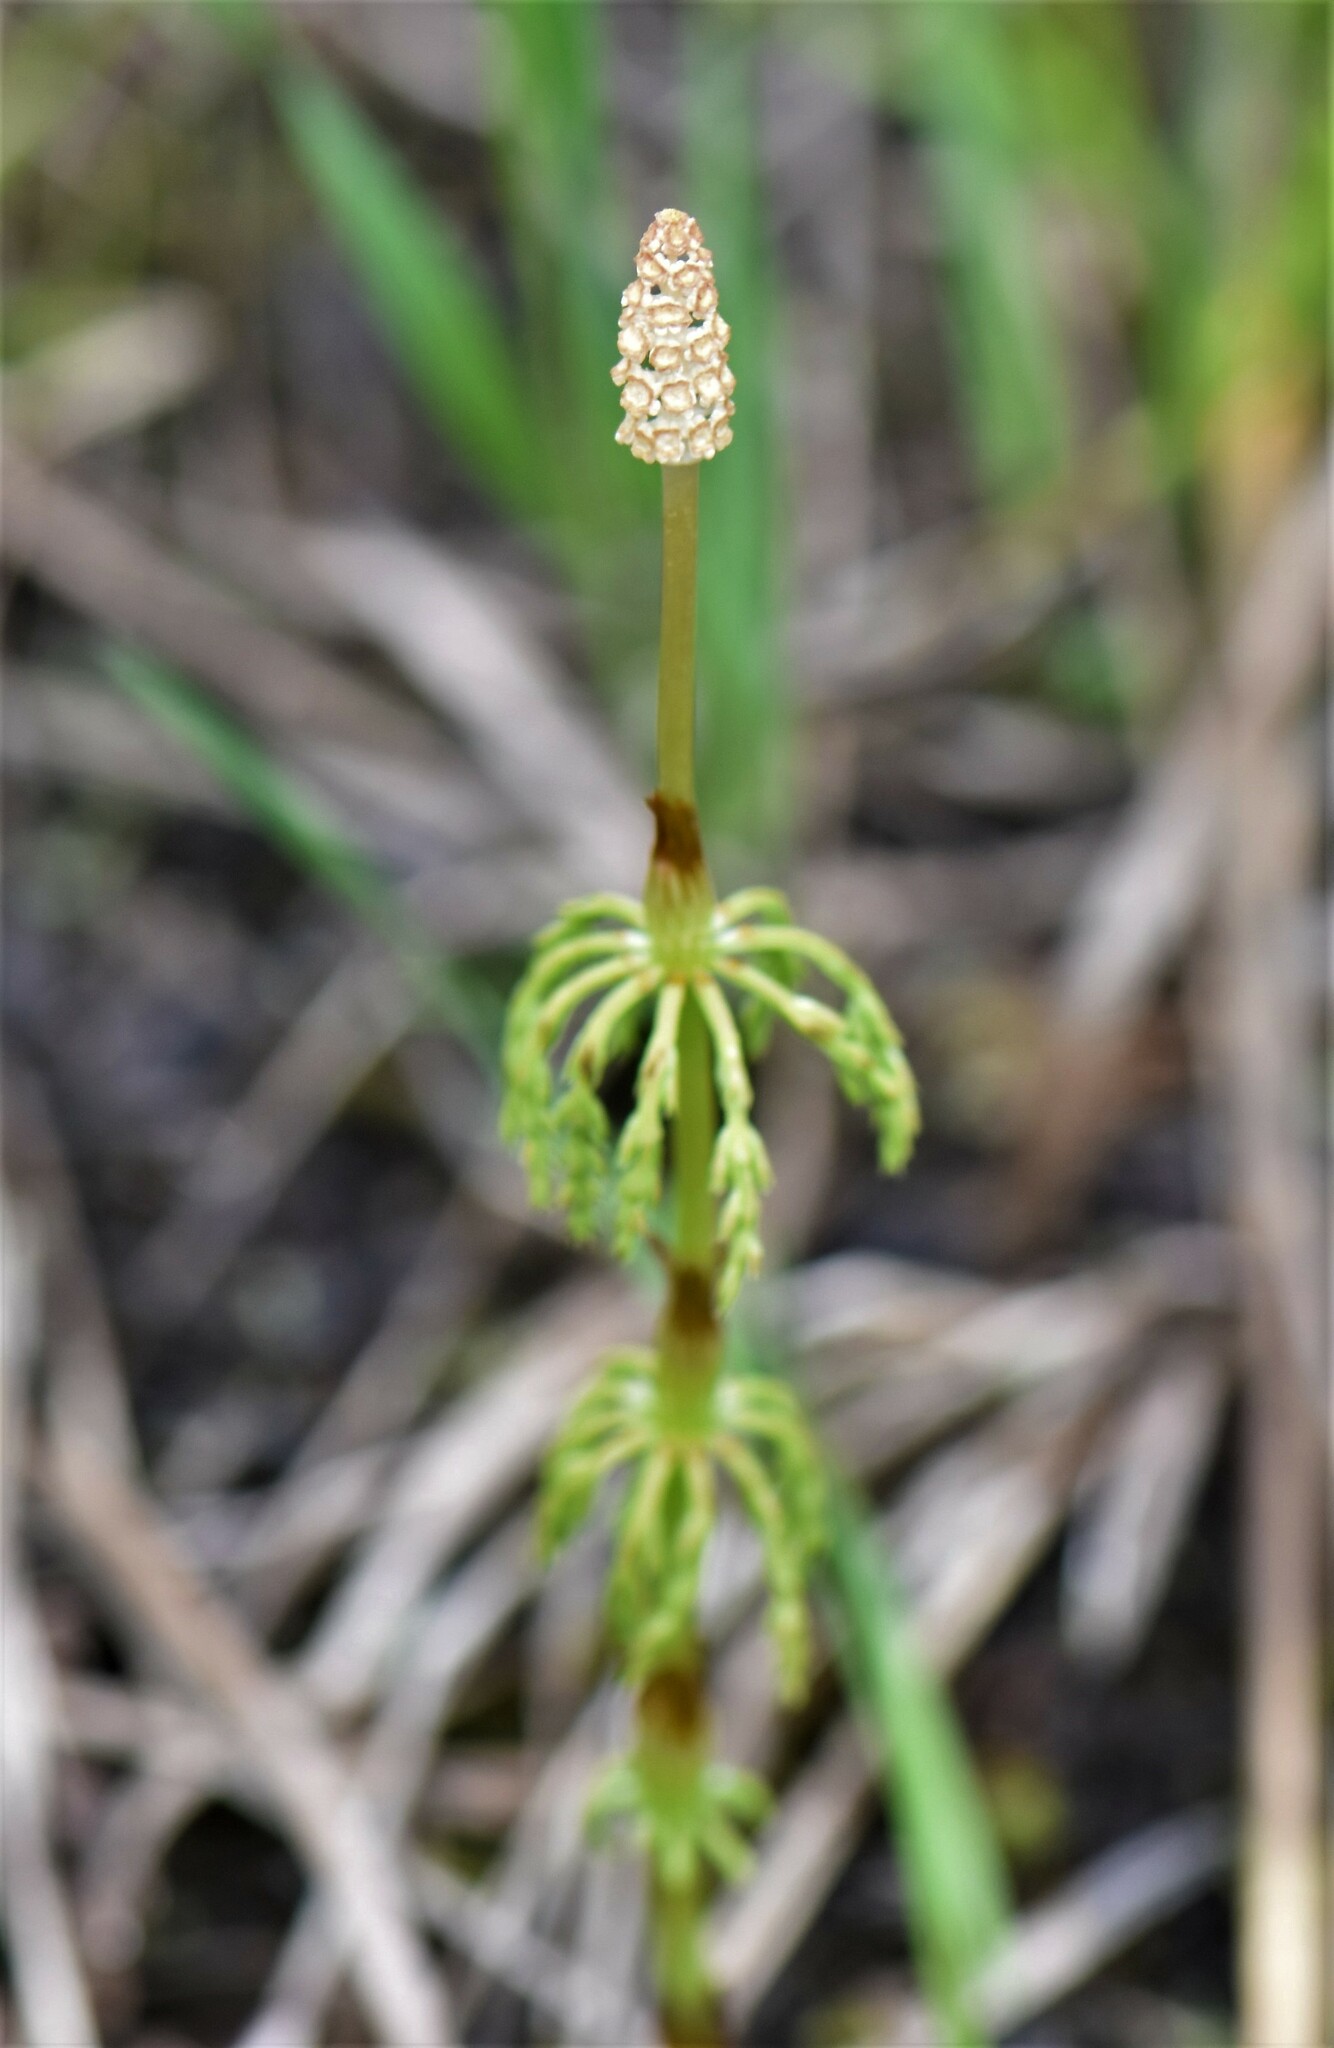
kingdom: Plantae
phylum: Tracheophyta
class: Polypodiopsida
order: Equisetales
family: Equisetaceae
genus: Equisetum
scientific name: Equisetum sylvaticum
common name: Wood horsetail
